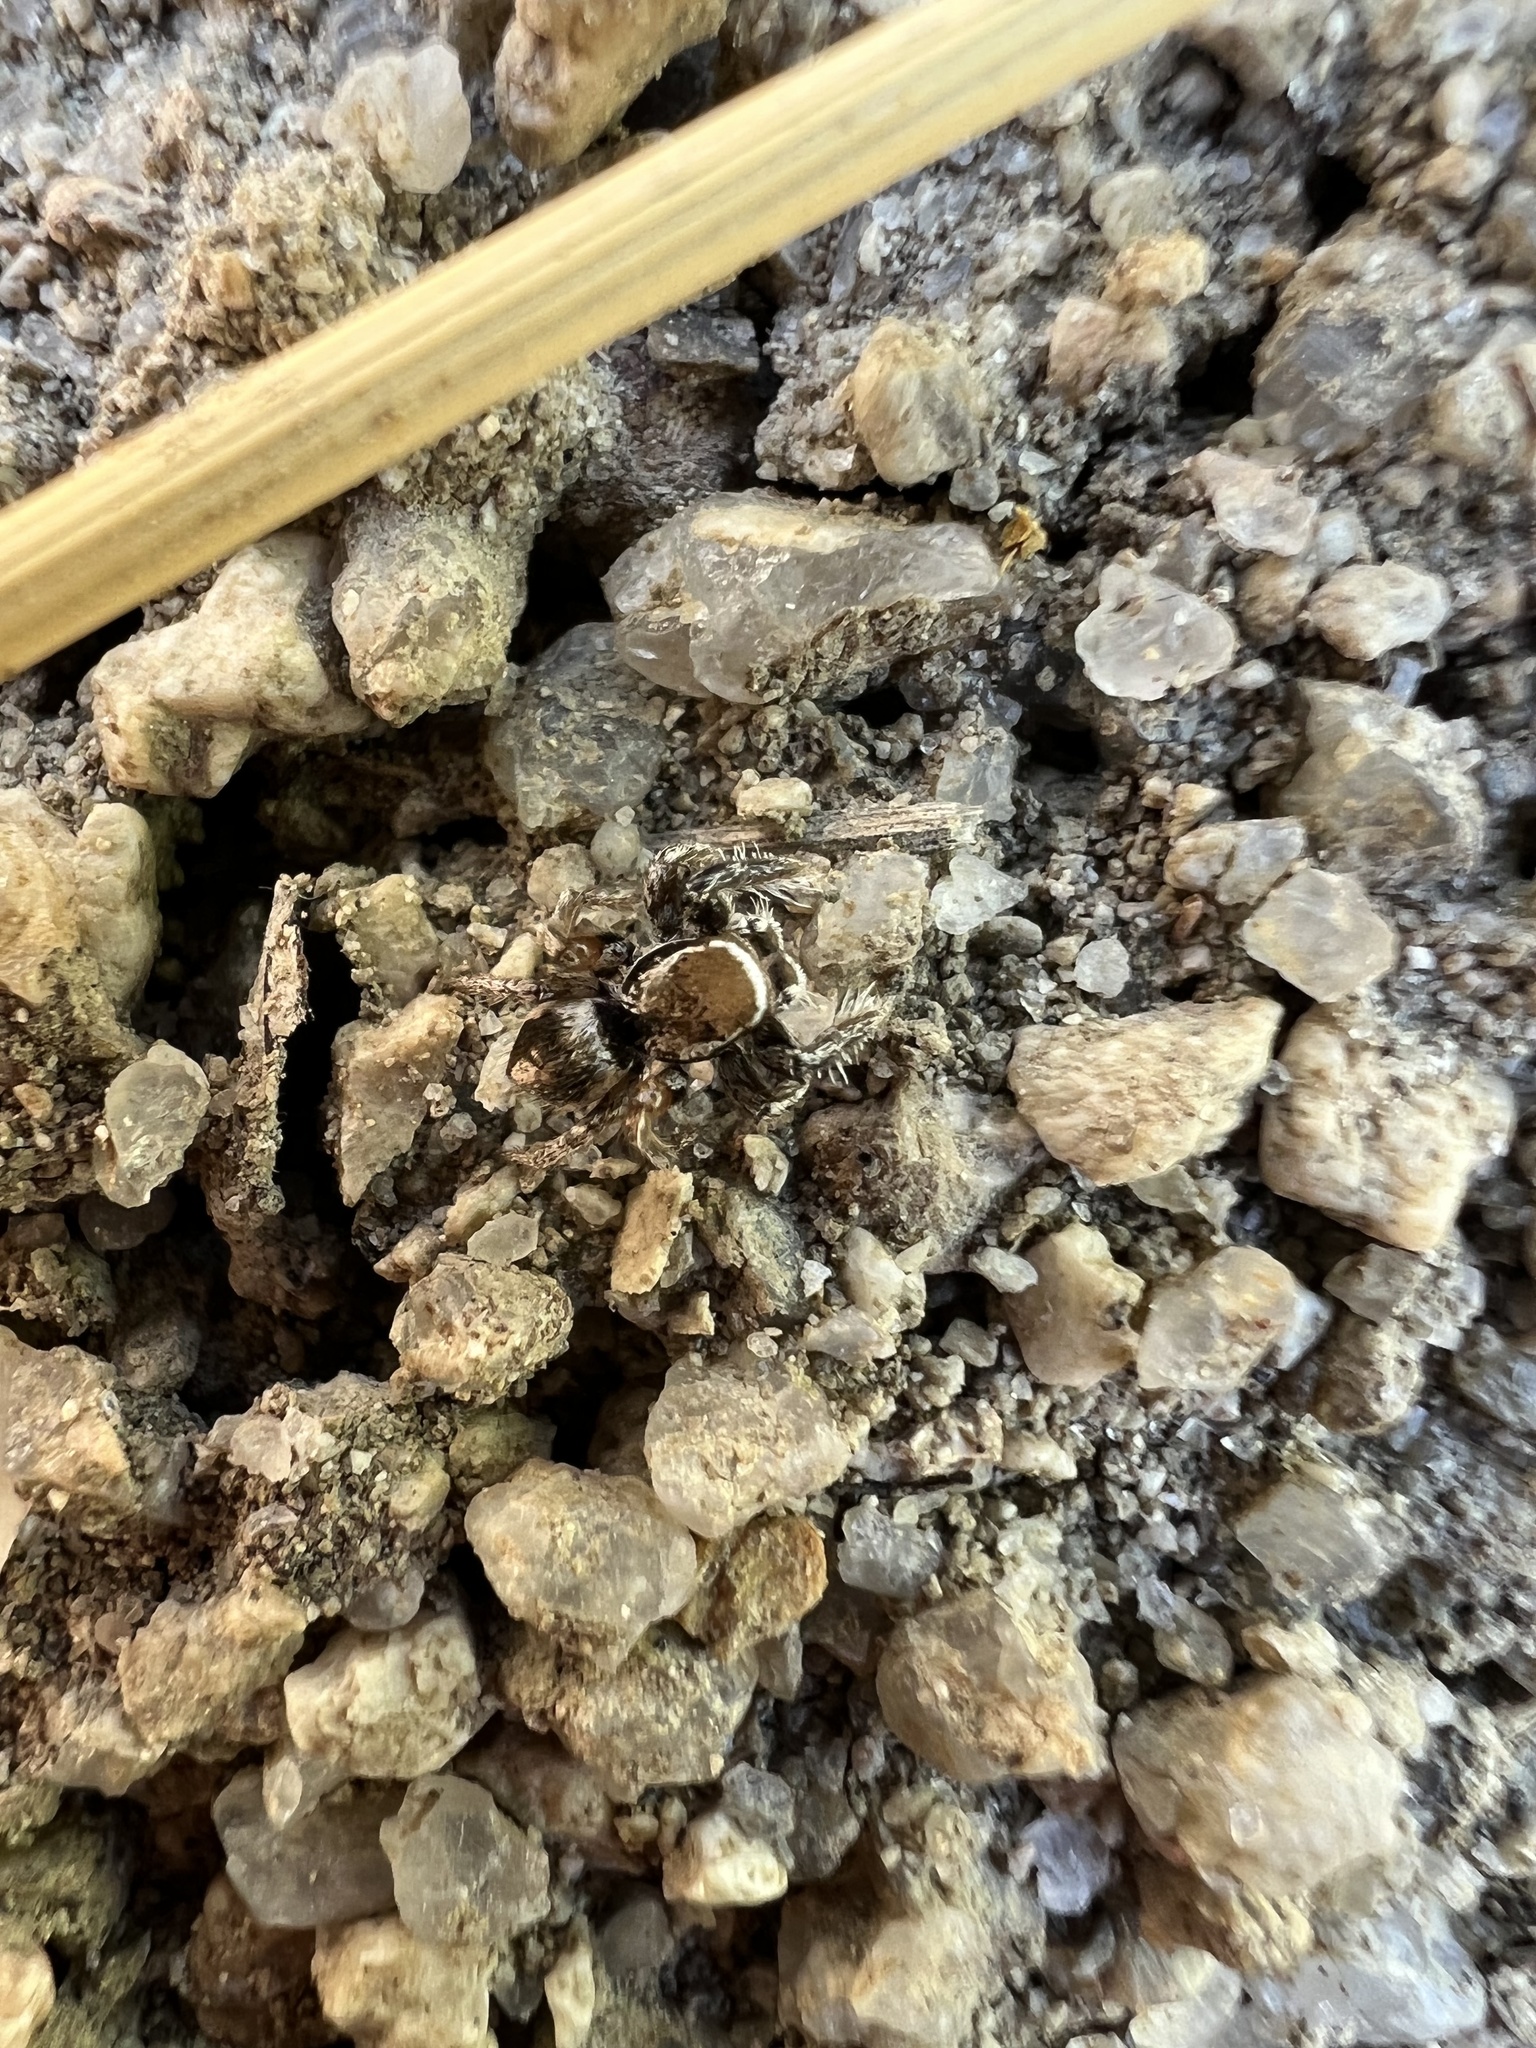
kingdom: Animalia
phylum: Arthropoda
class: Arachnida
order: Araneae
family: Salticidae
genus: Habronattus
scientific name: Habronattus clypeatus
